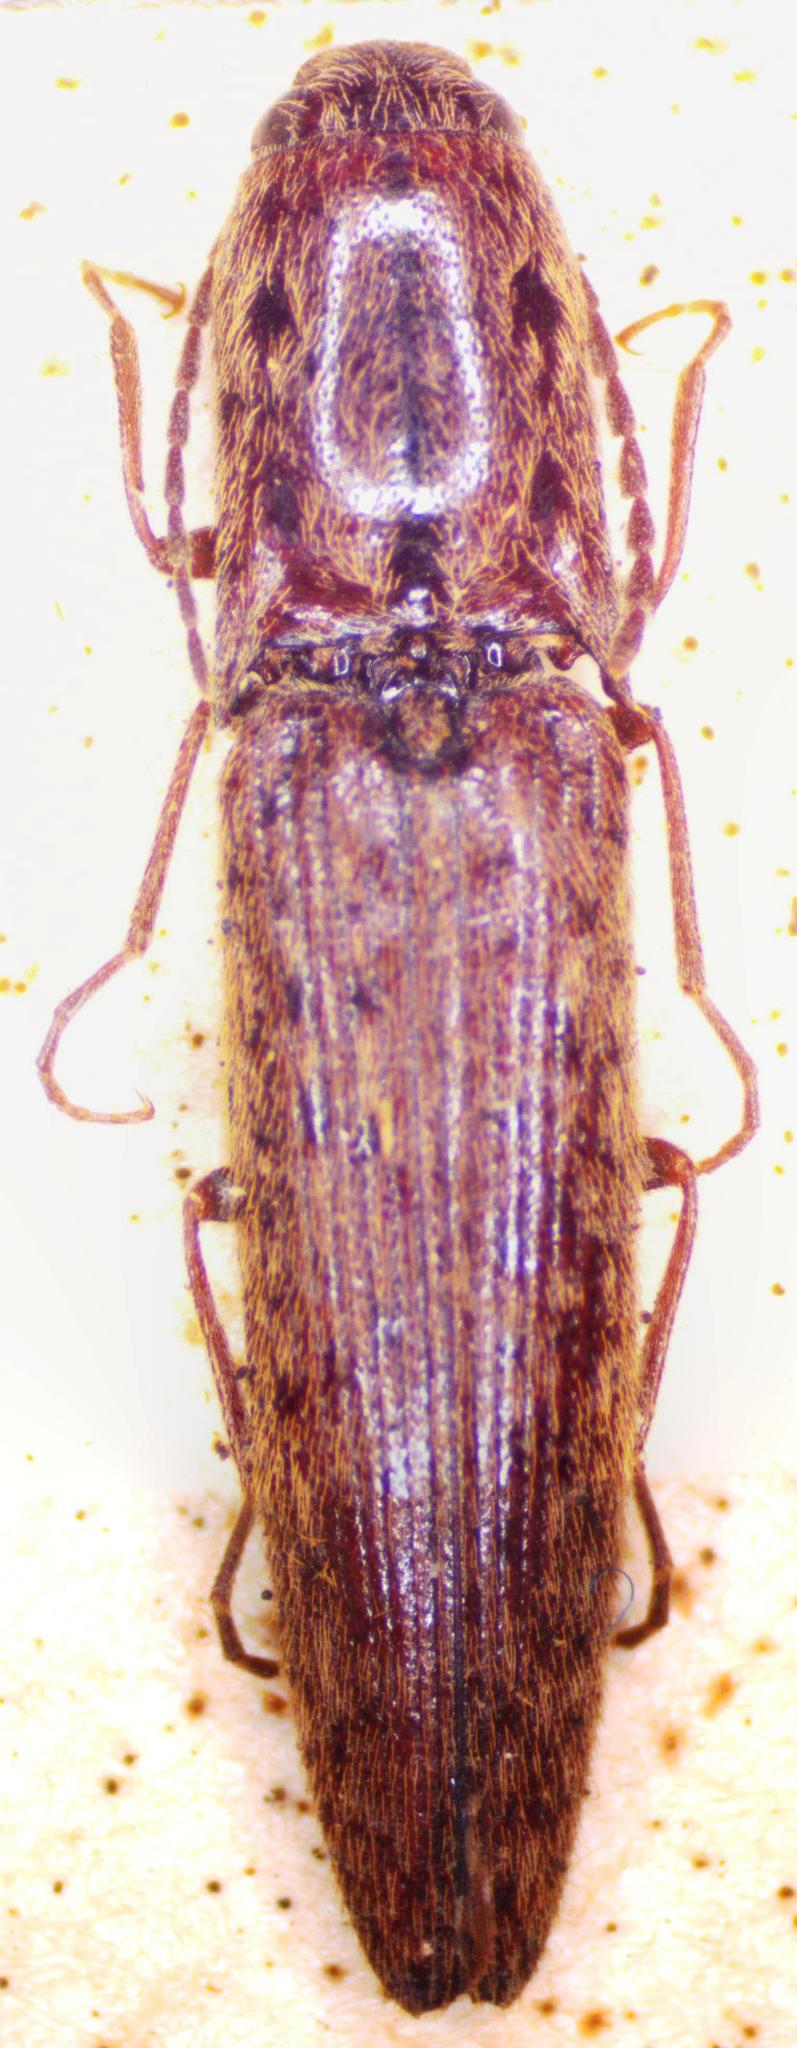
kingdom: Animalia
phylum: Arthropoda
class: Insecta
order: Coleoptera
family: Elateridae
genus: Psiloniscus
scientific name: Psiloniscus
